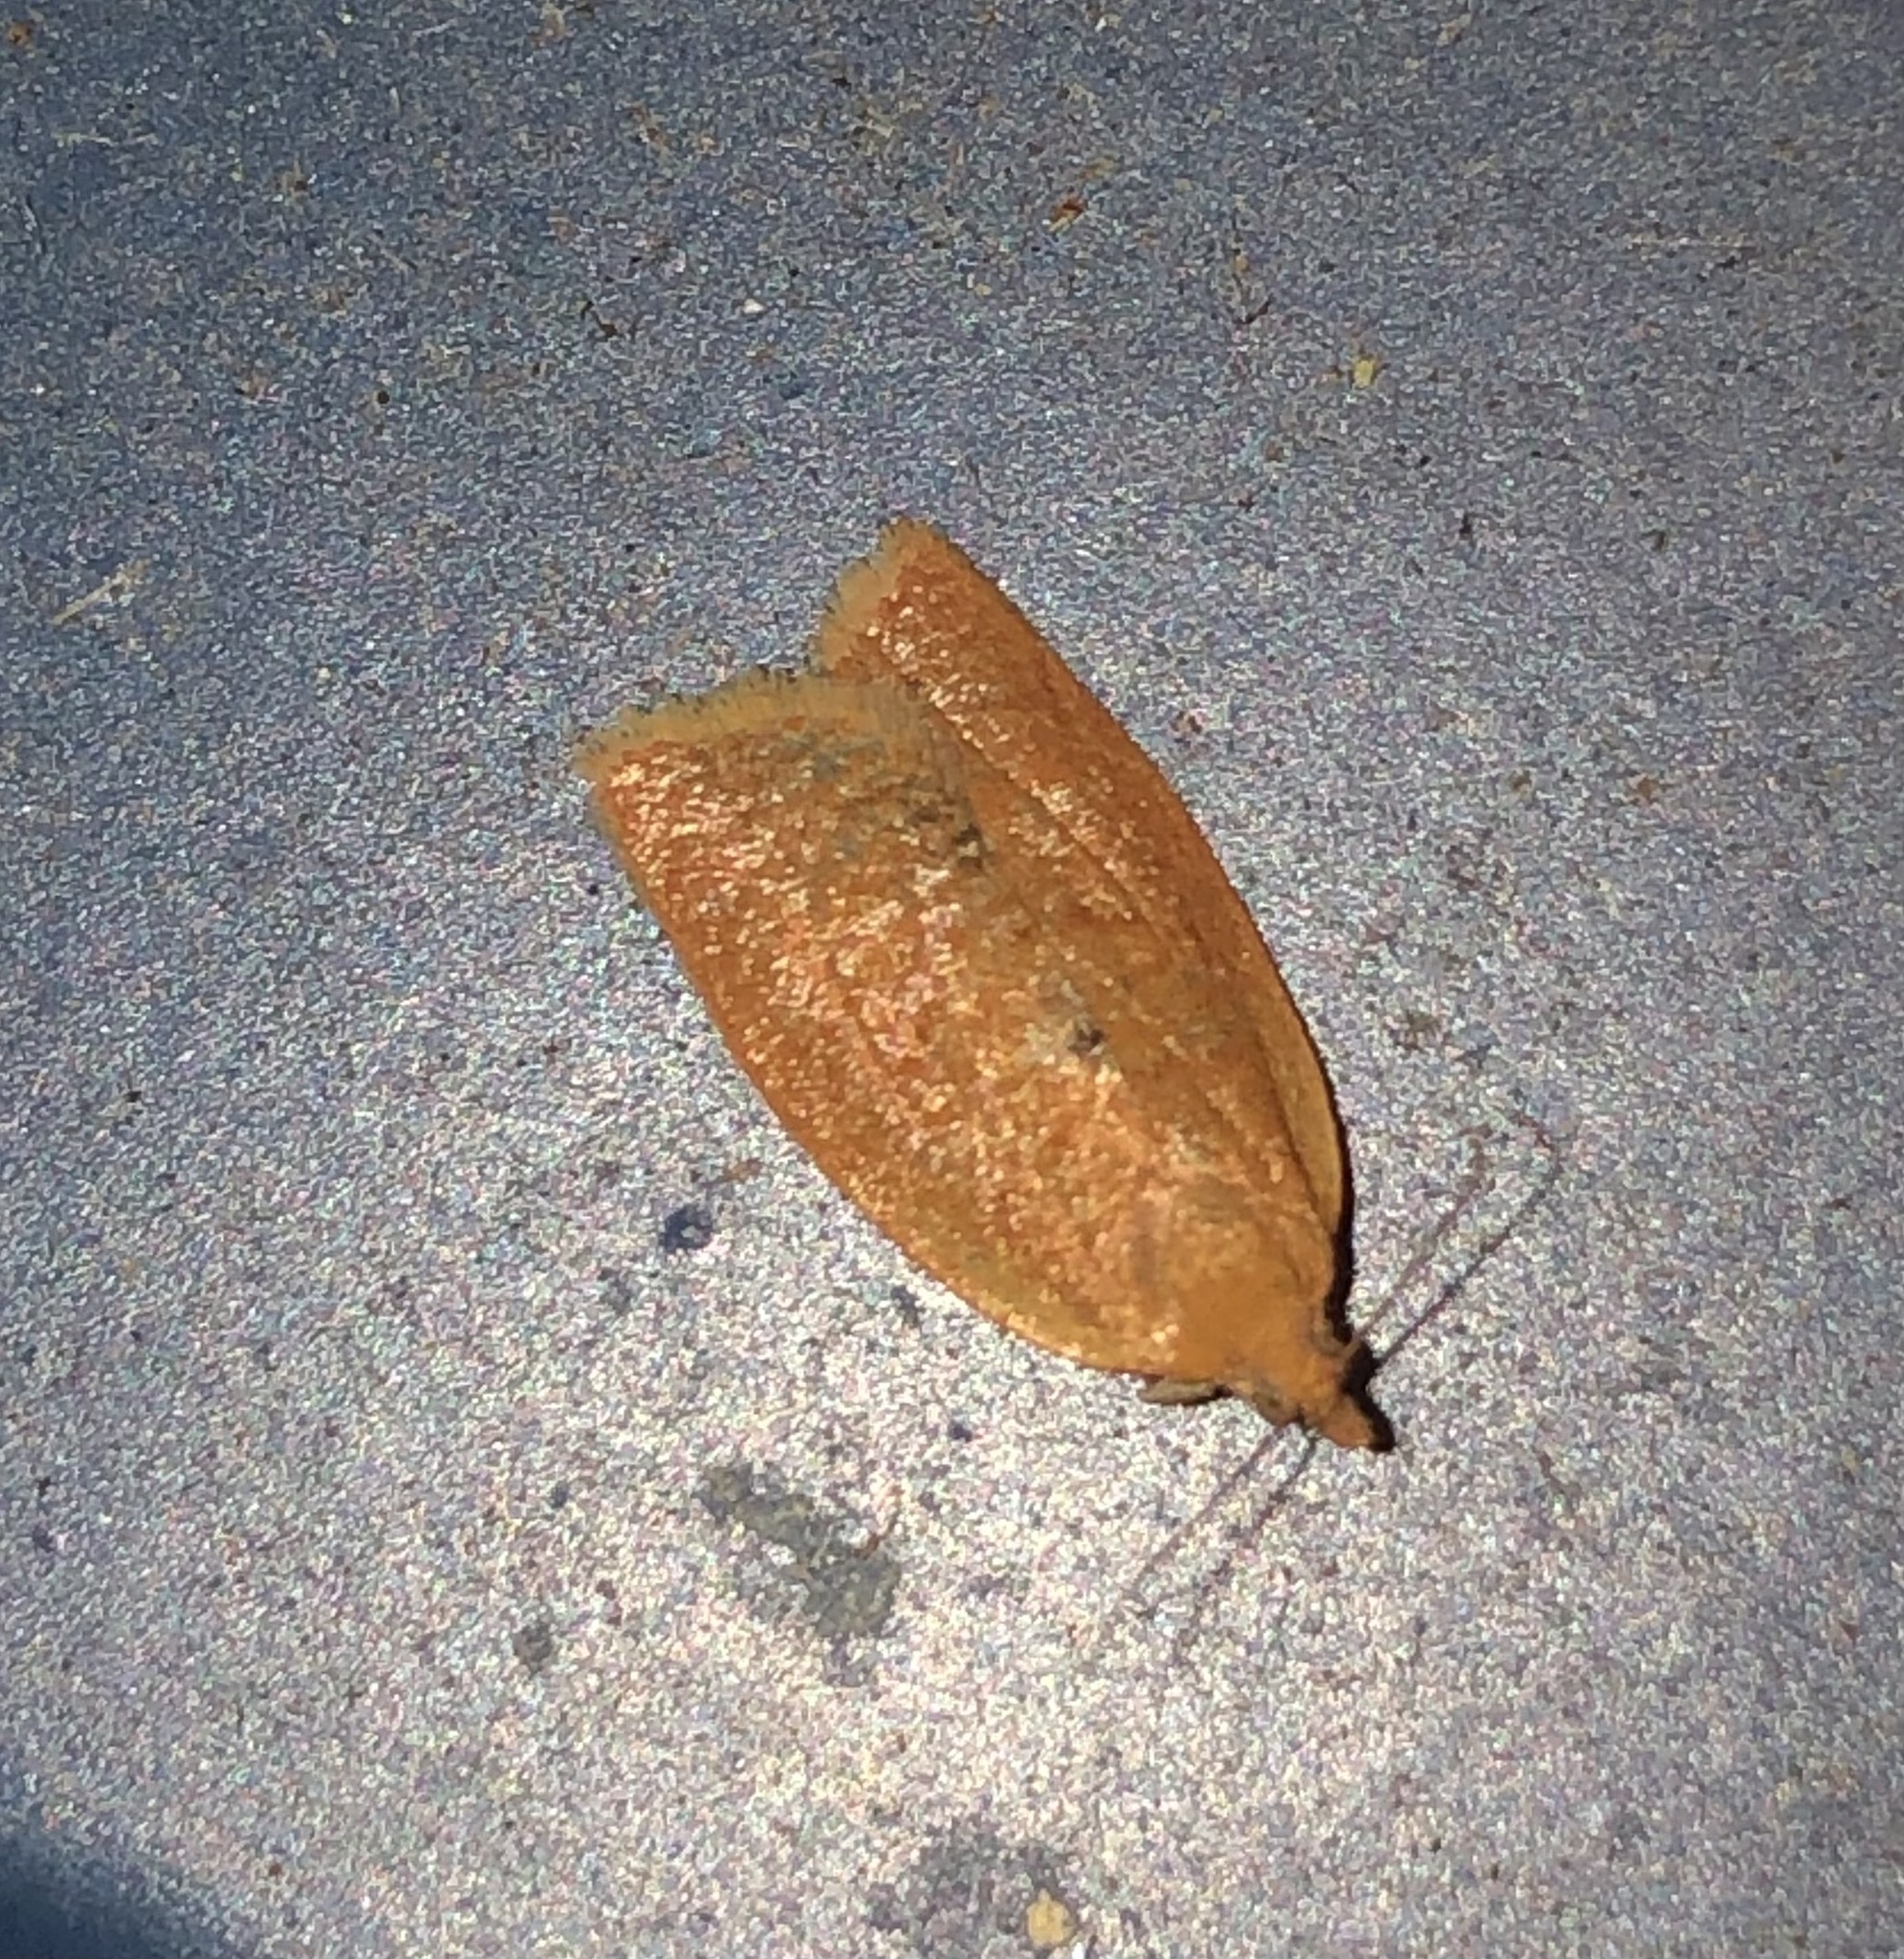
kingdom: Animalia
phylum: Arthropoda
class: Insecta
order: Lepidoptera
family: Tortricidae
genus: Clepsis
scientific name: Clepsis consimilana
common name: Privet tortrix
